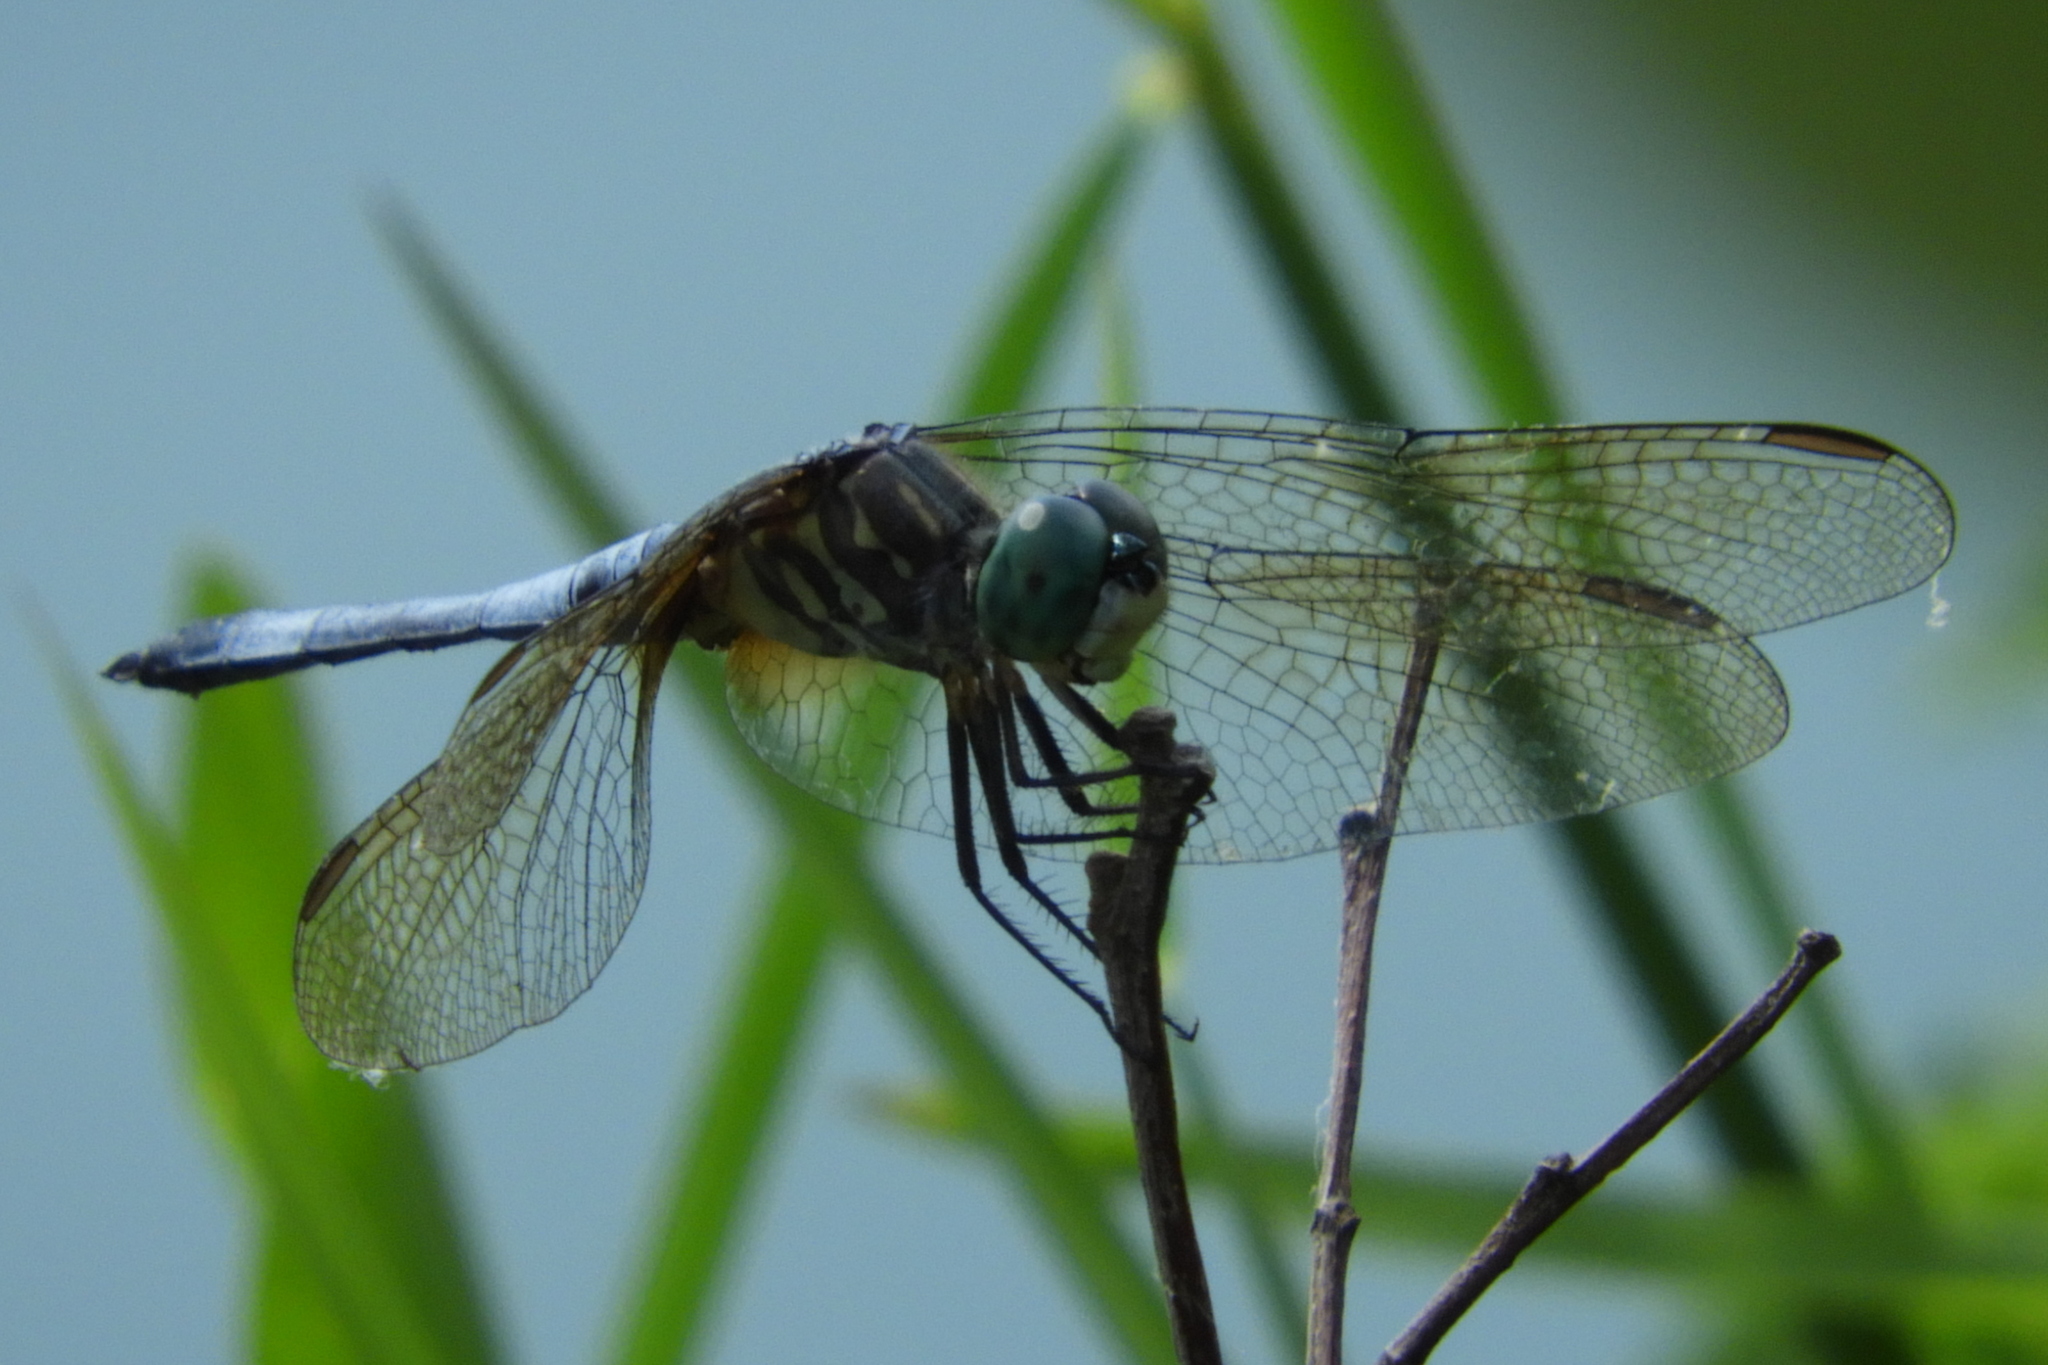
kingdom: Animalia
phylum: Arthropoda
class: Insecta
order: Odonata
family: Libellulidae
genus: Pachydiplax
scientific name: Pachydiplax longipennis
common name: Blue dasher
